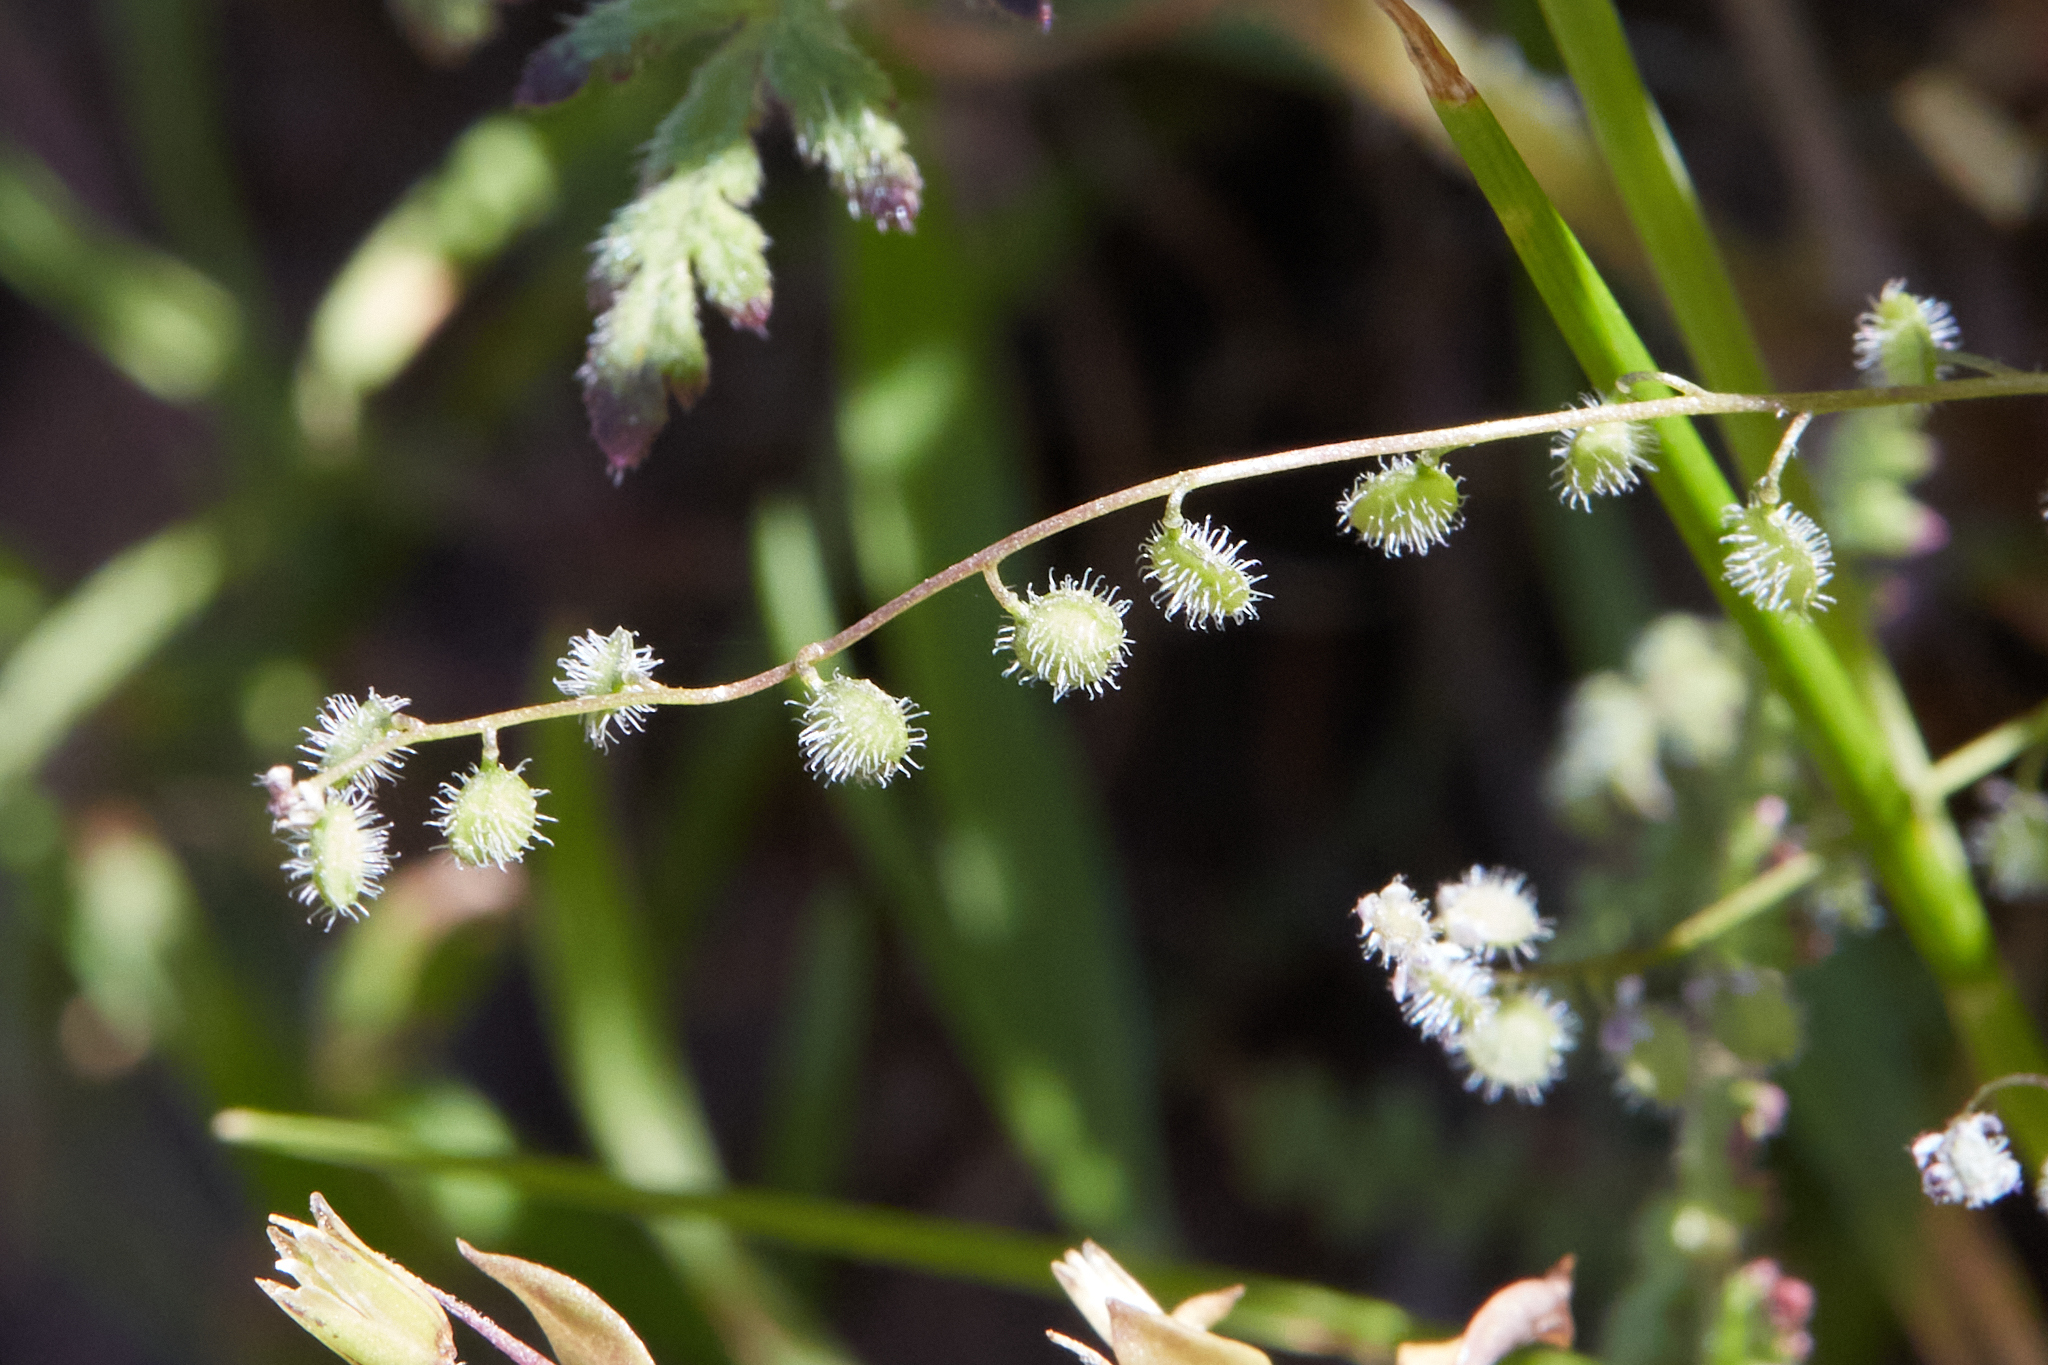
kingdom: Plantae
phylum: Tracheophyta
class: Magnoliopsida
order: Brassicales
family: Brassicaceae
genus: Athysanus
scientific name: Athysanus pusillus
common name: Common sandweed
